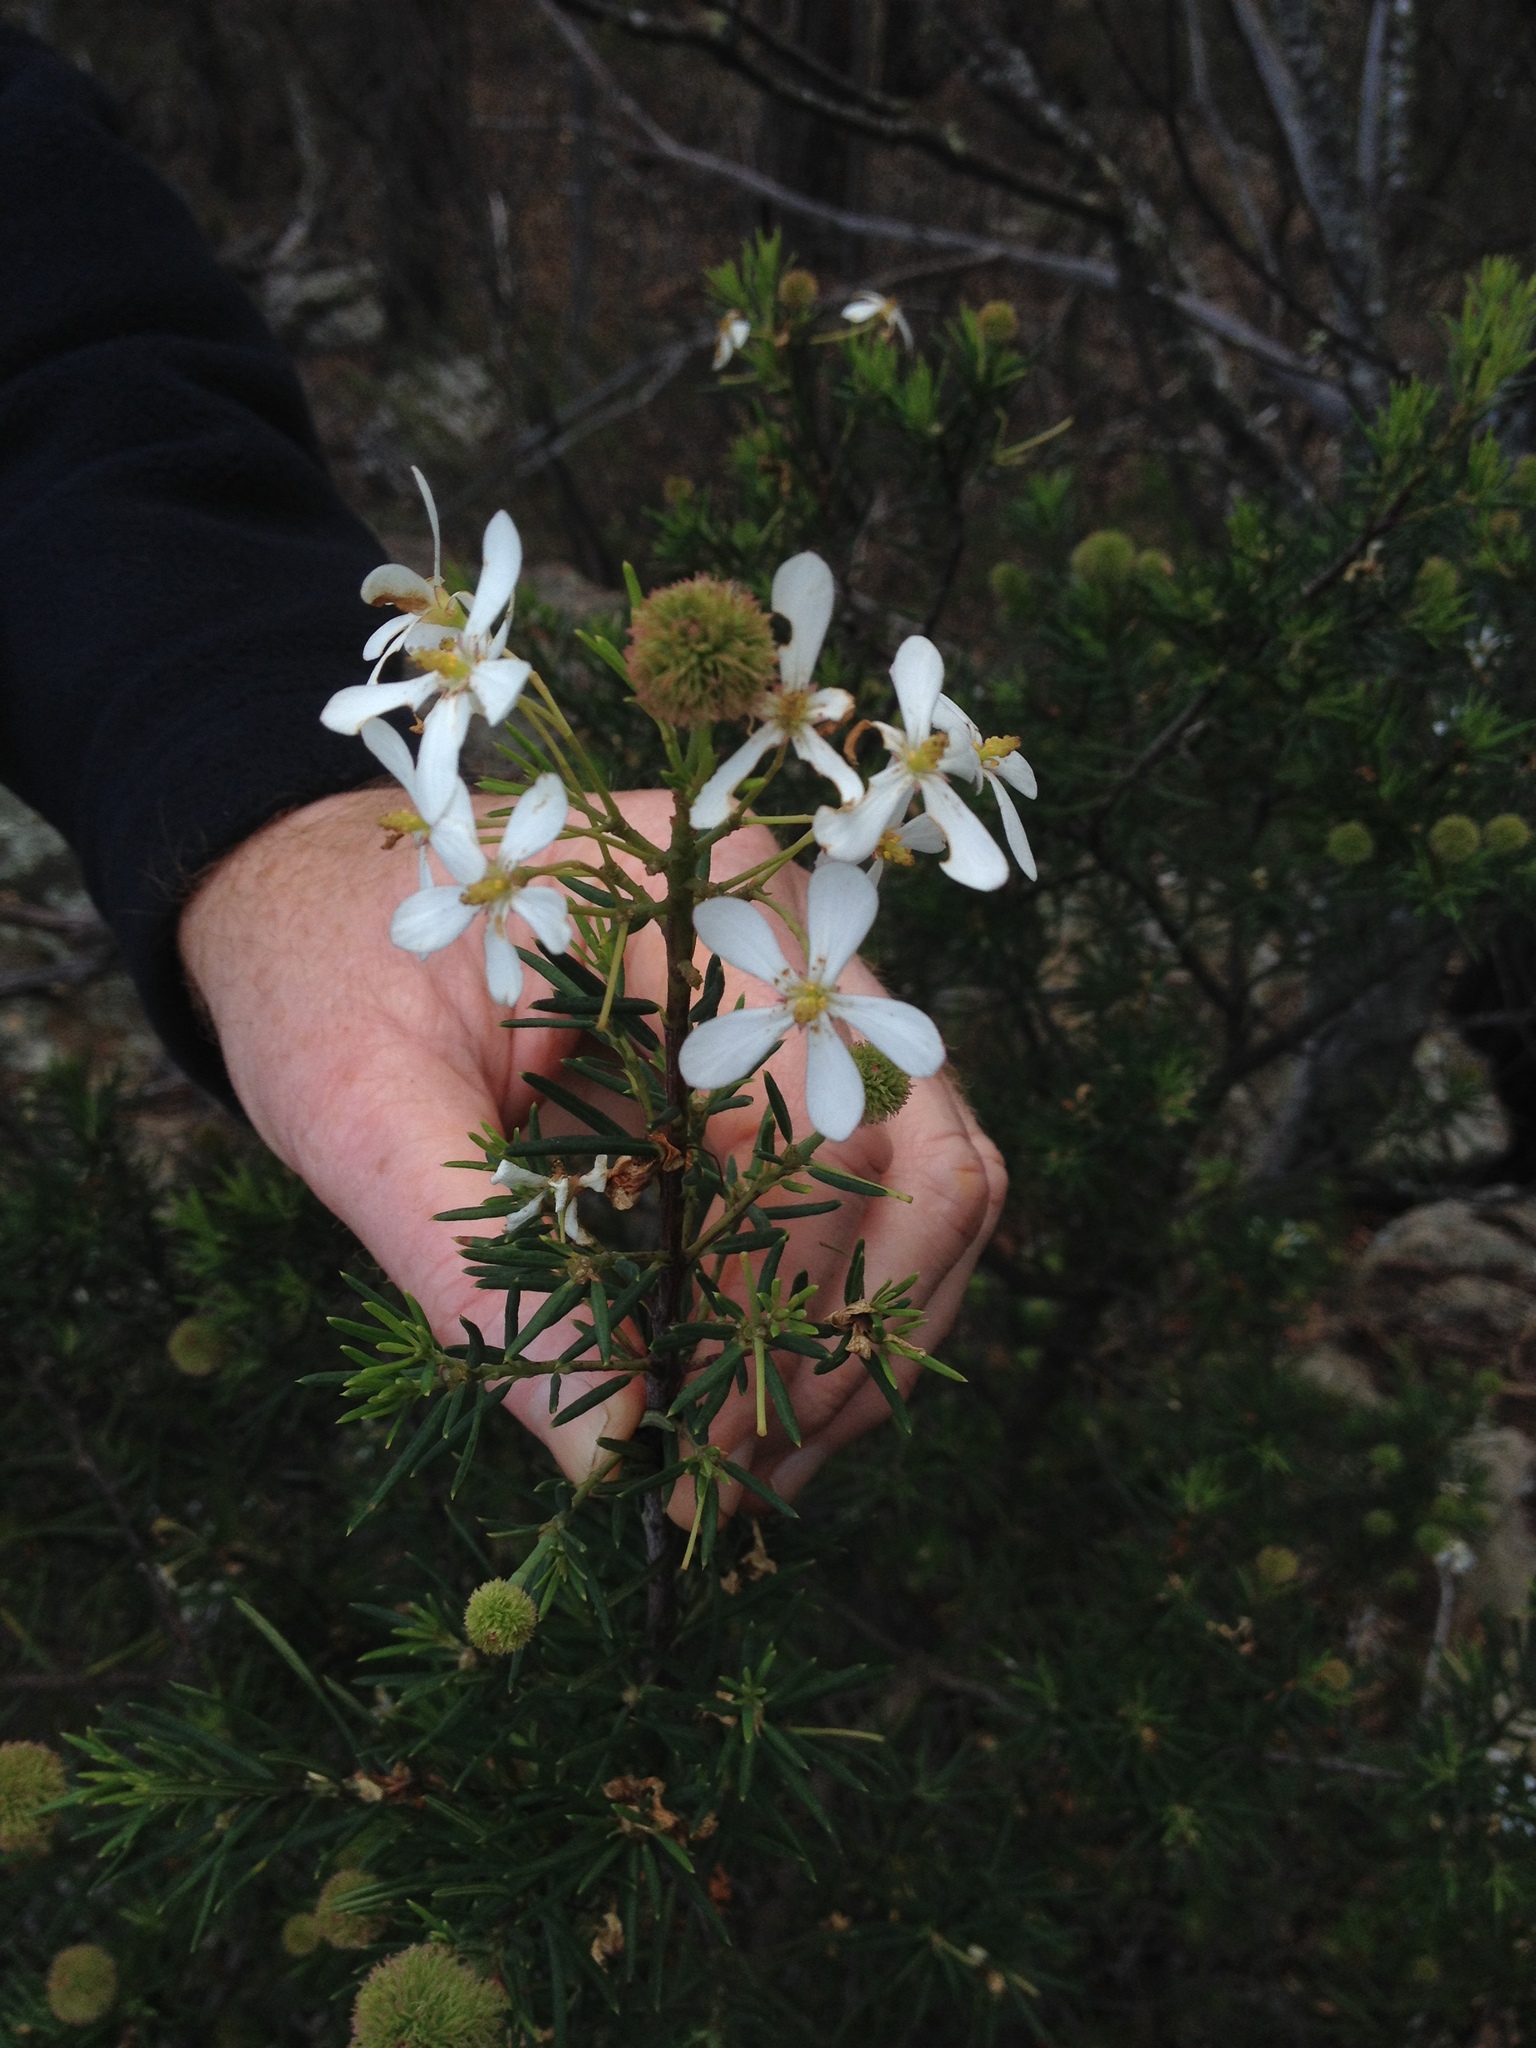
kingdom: Plantae
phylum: Tracheophyta
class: Magnoliopsida
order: Malpighiales
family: Euphorbiaceae
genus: Ricinocarpos
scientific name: Ricinocarpos pinifolius
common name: Weddingbush
